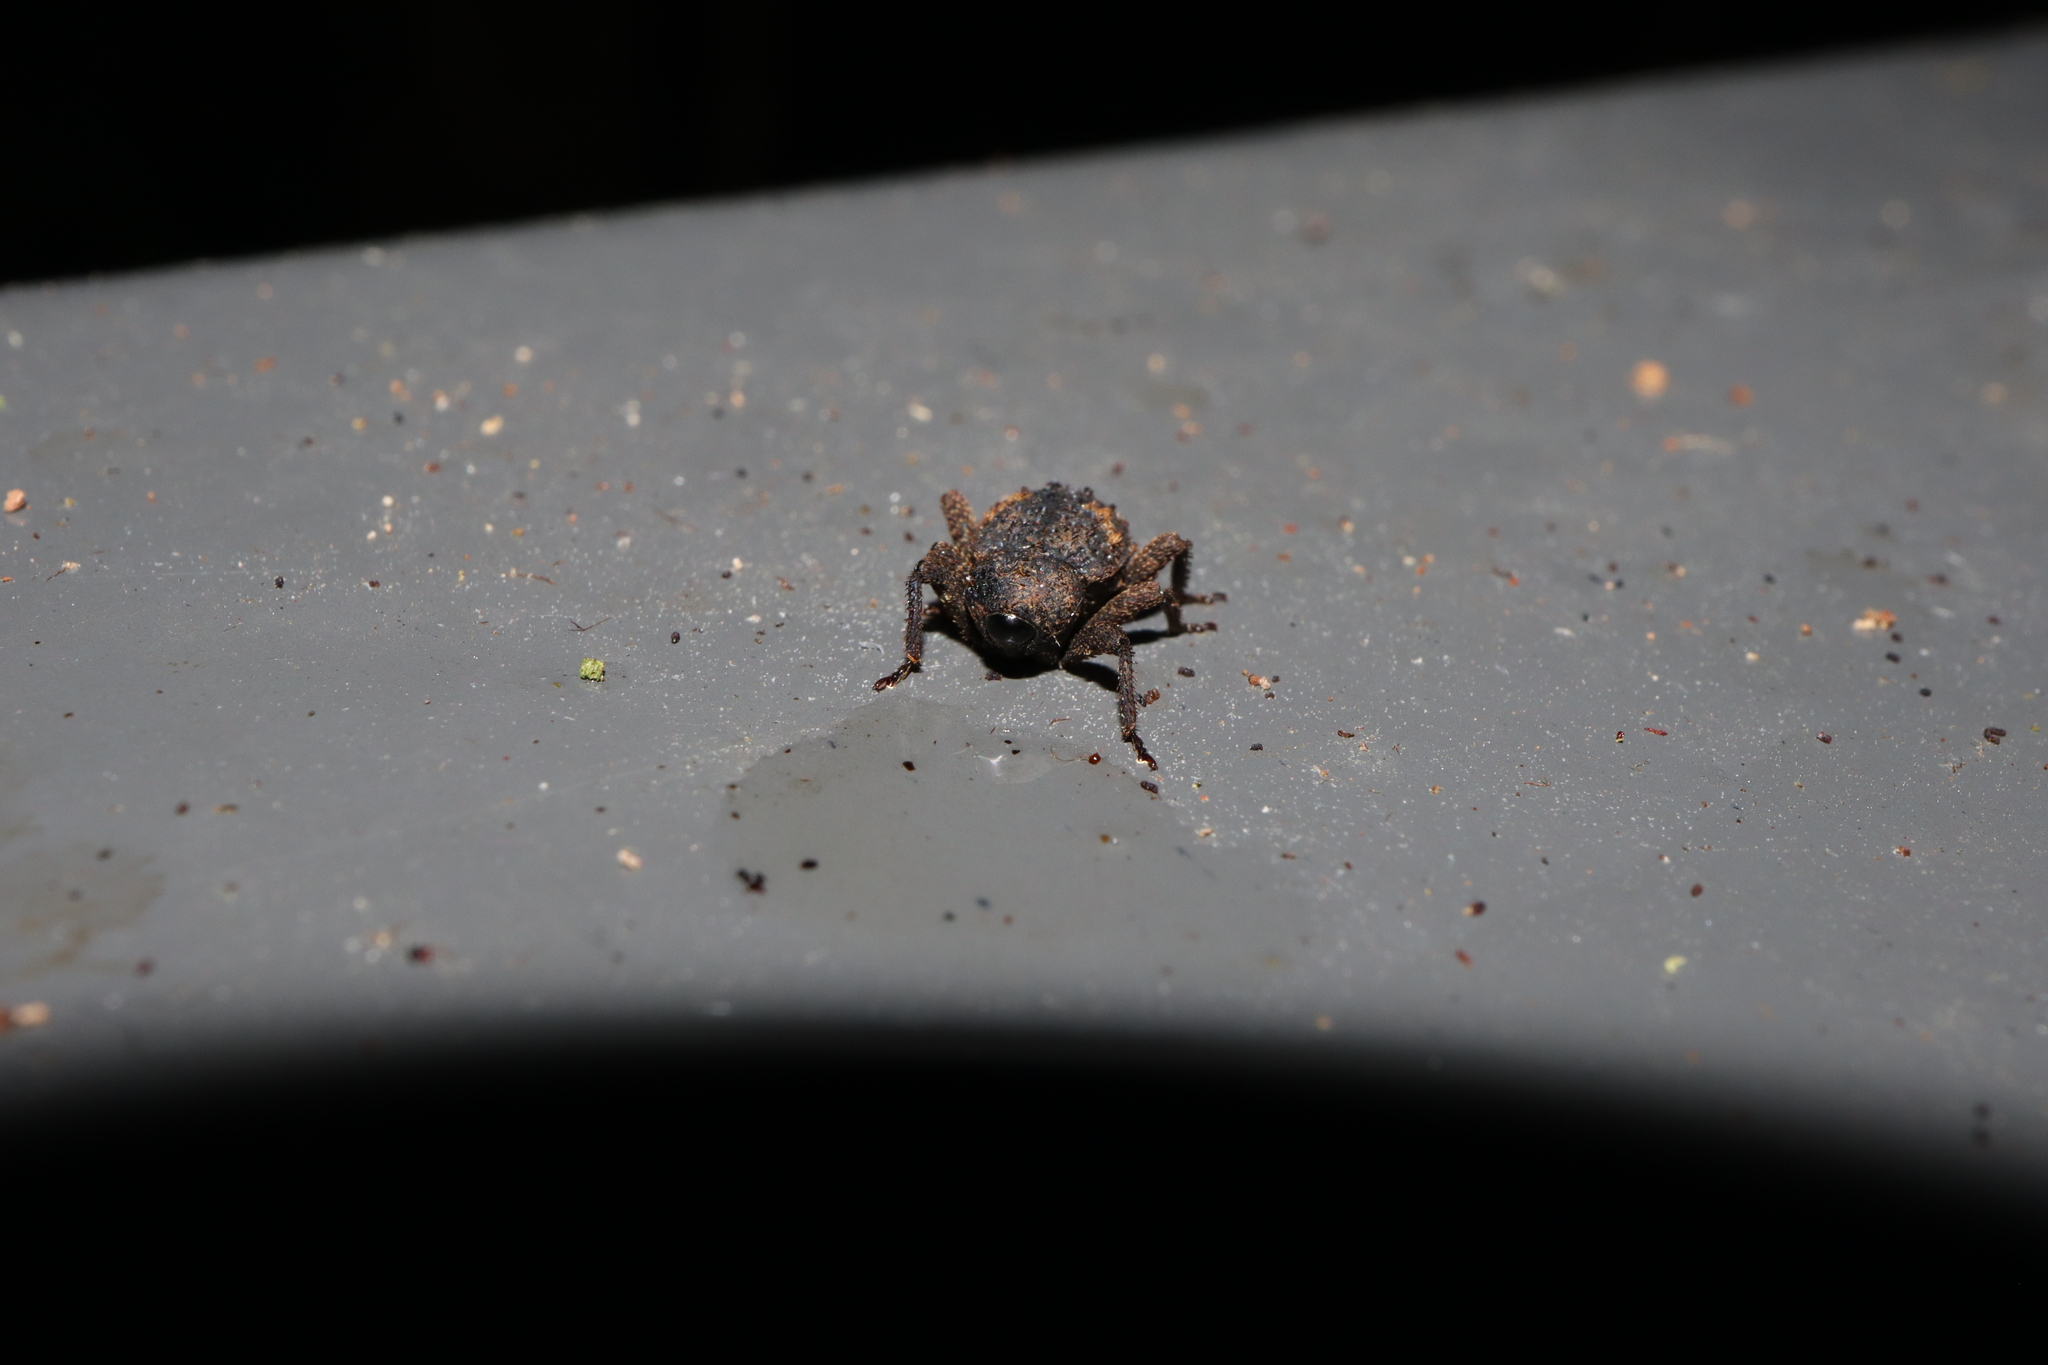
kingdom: Animalia
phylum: Arthropoda
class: Insecta
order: Coleoptera
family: Curculionidae
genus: Notocalviceps
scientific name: Notocalviceps rarus
